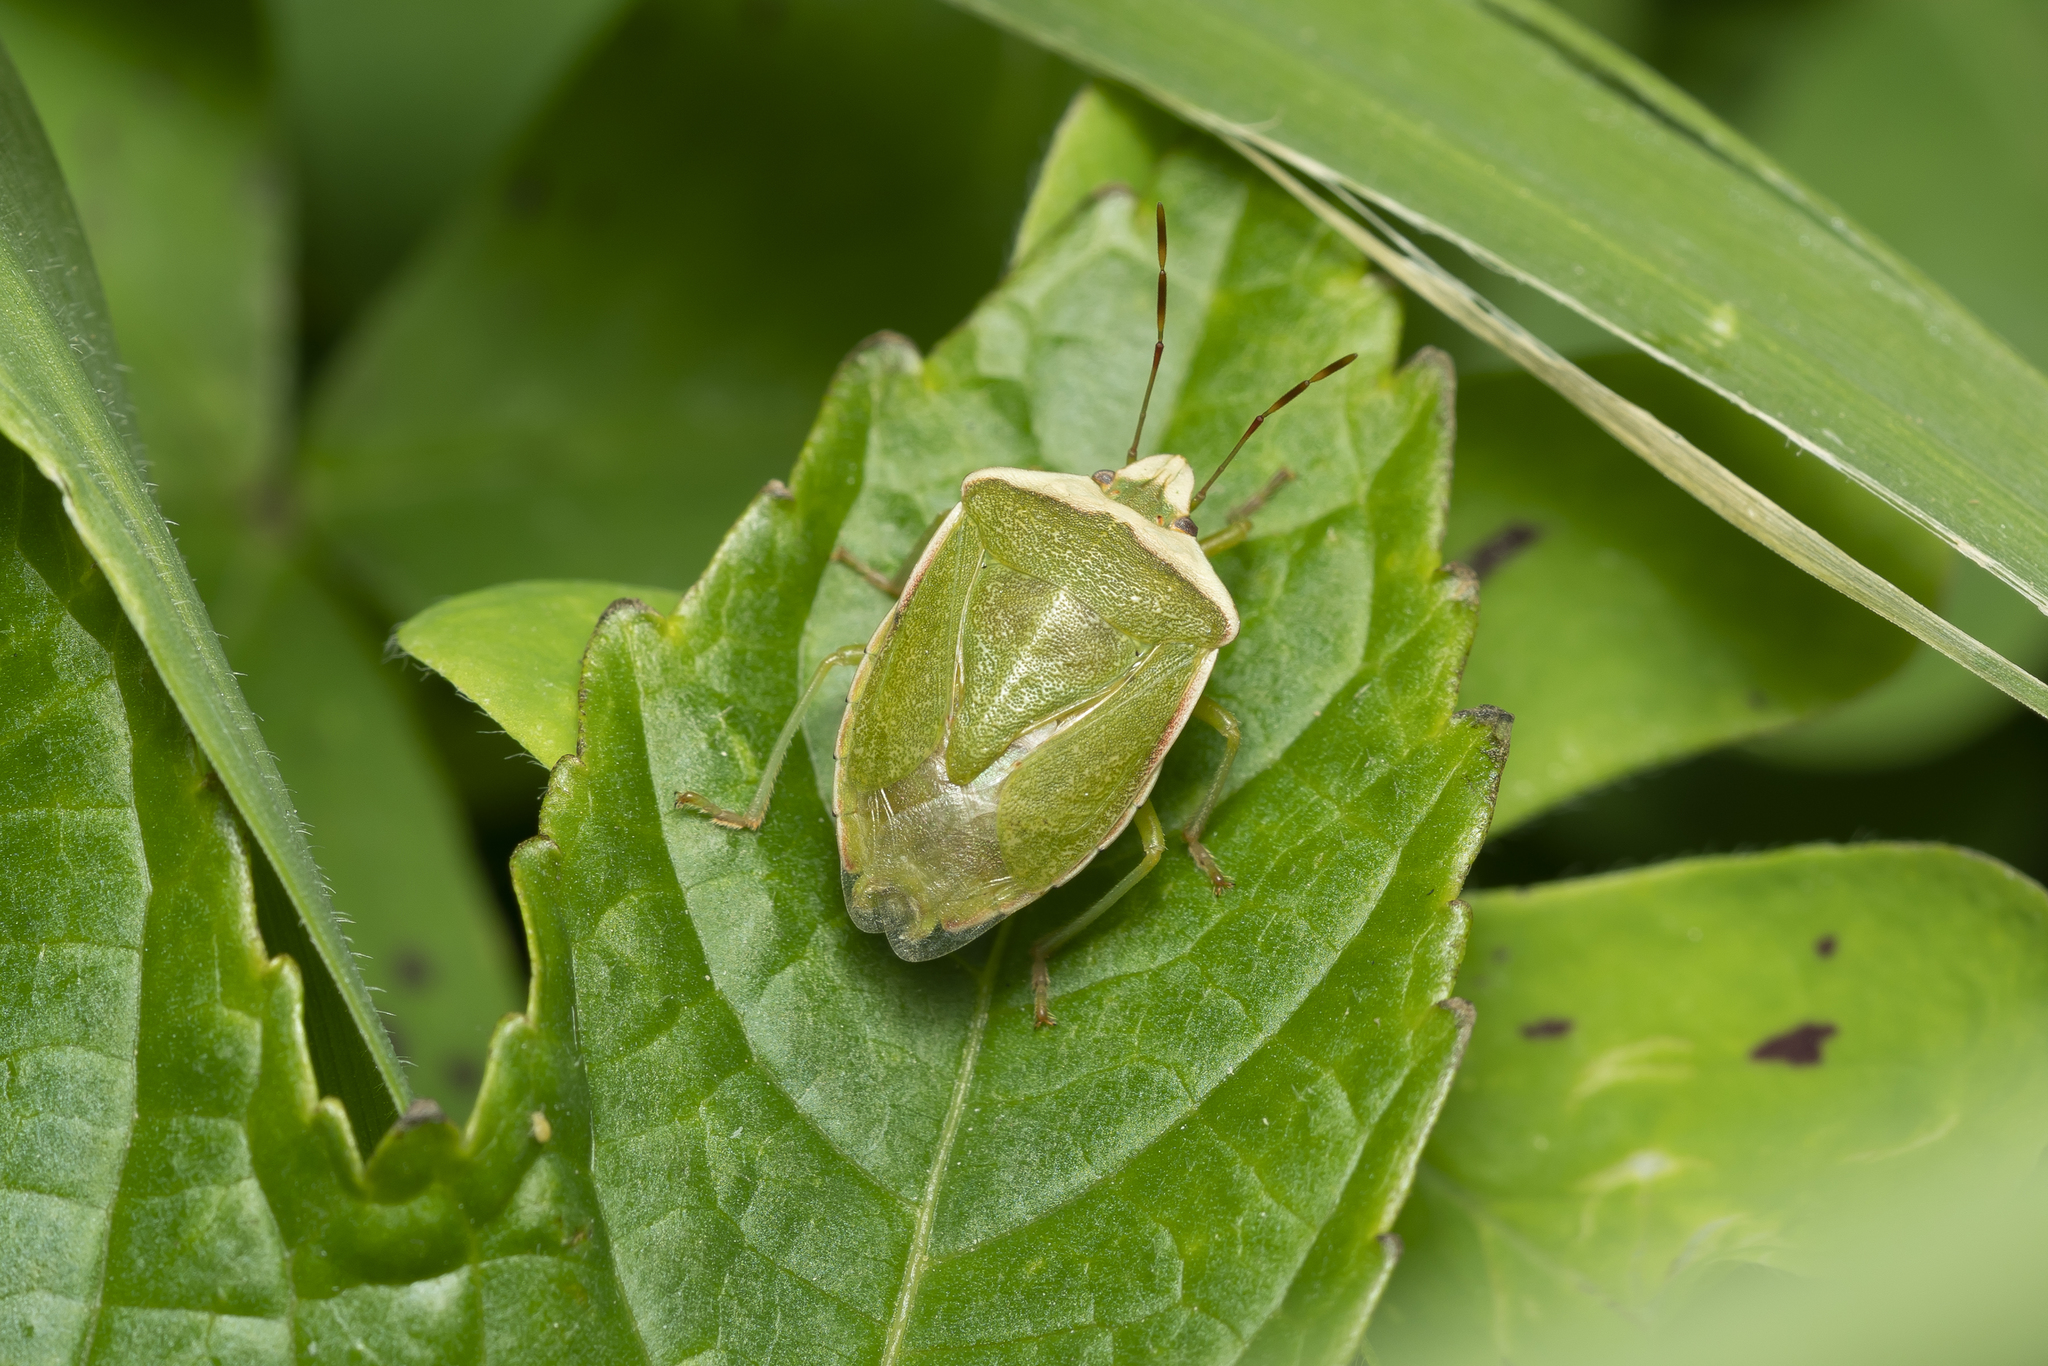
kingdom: Animalia
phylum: Arthropoda
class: Insecta
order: Hemiptera
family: Pentatomidae
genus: Nezara
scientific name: Nezara viridula
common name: Southern green stink bug
